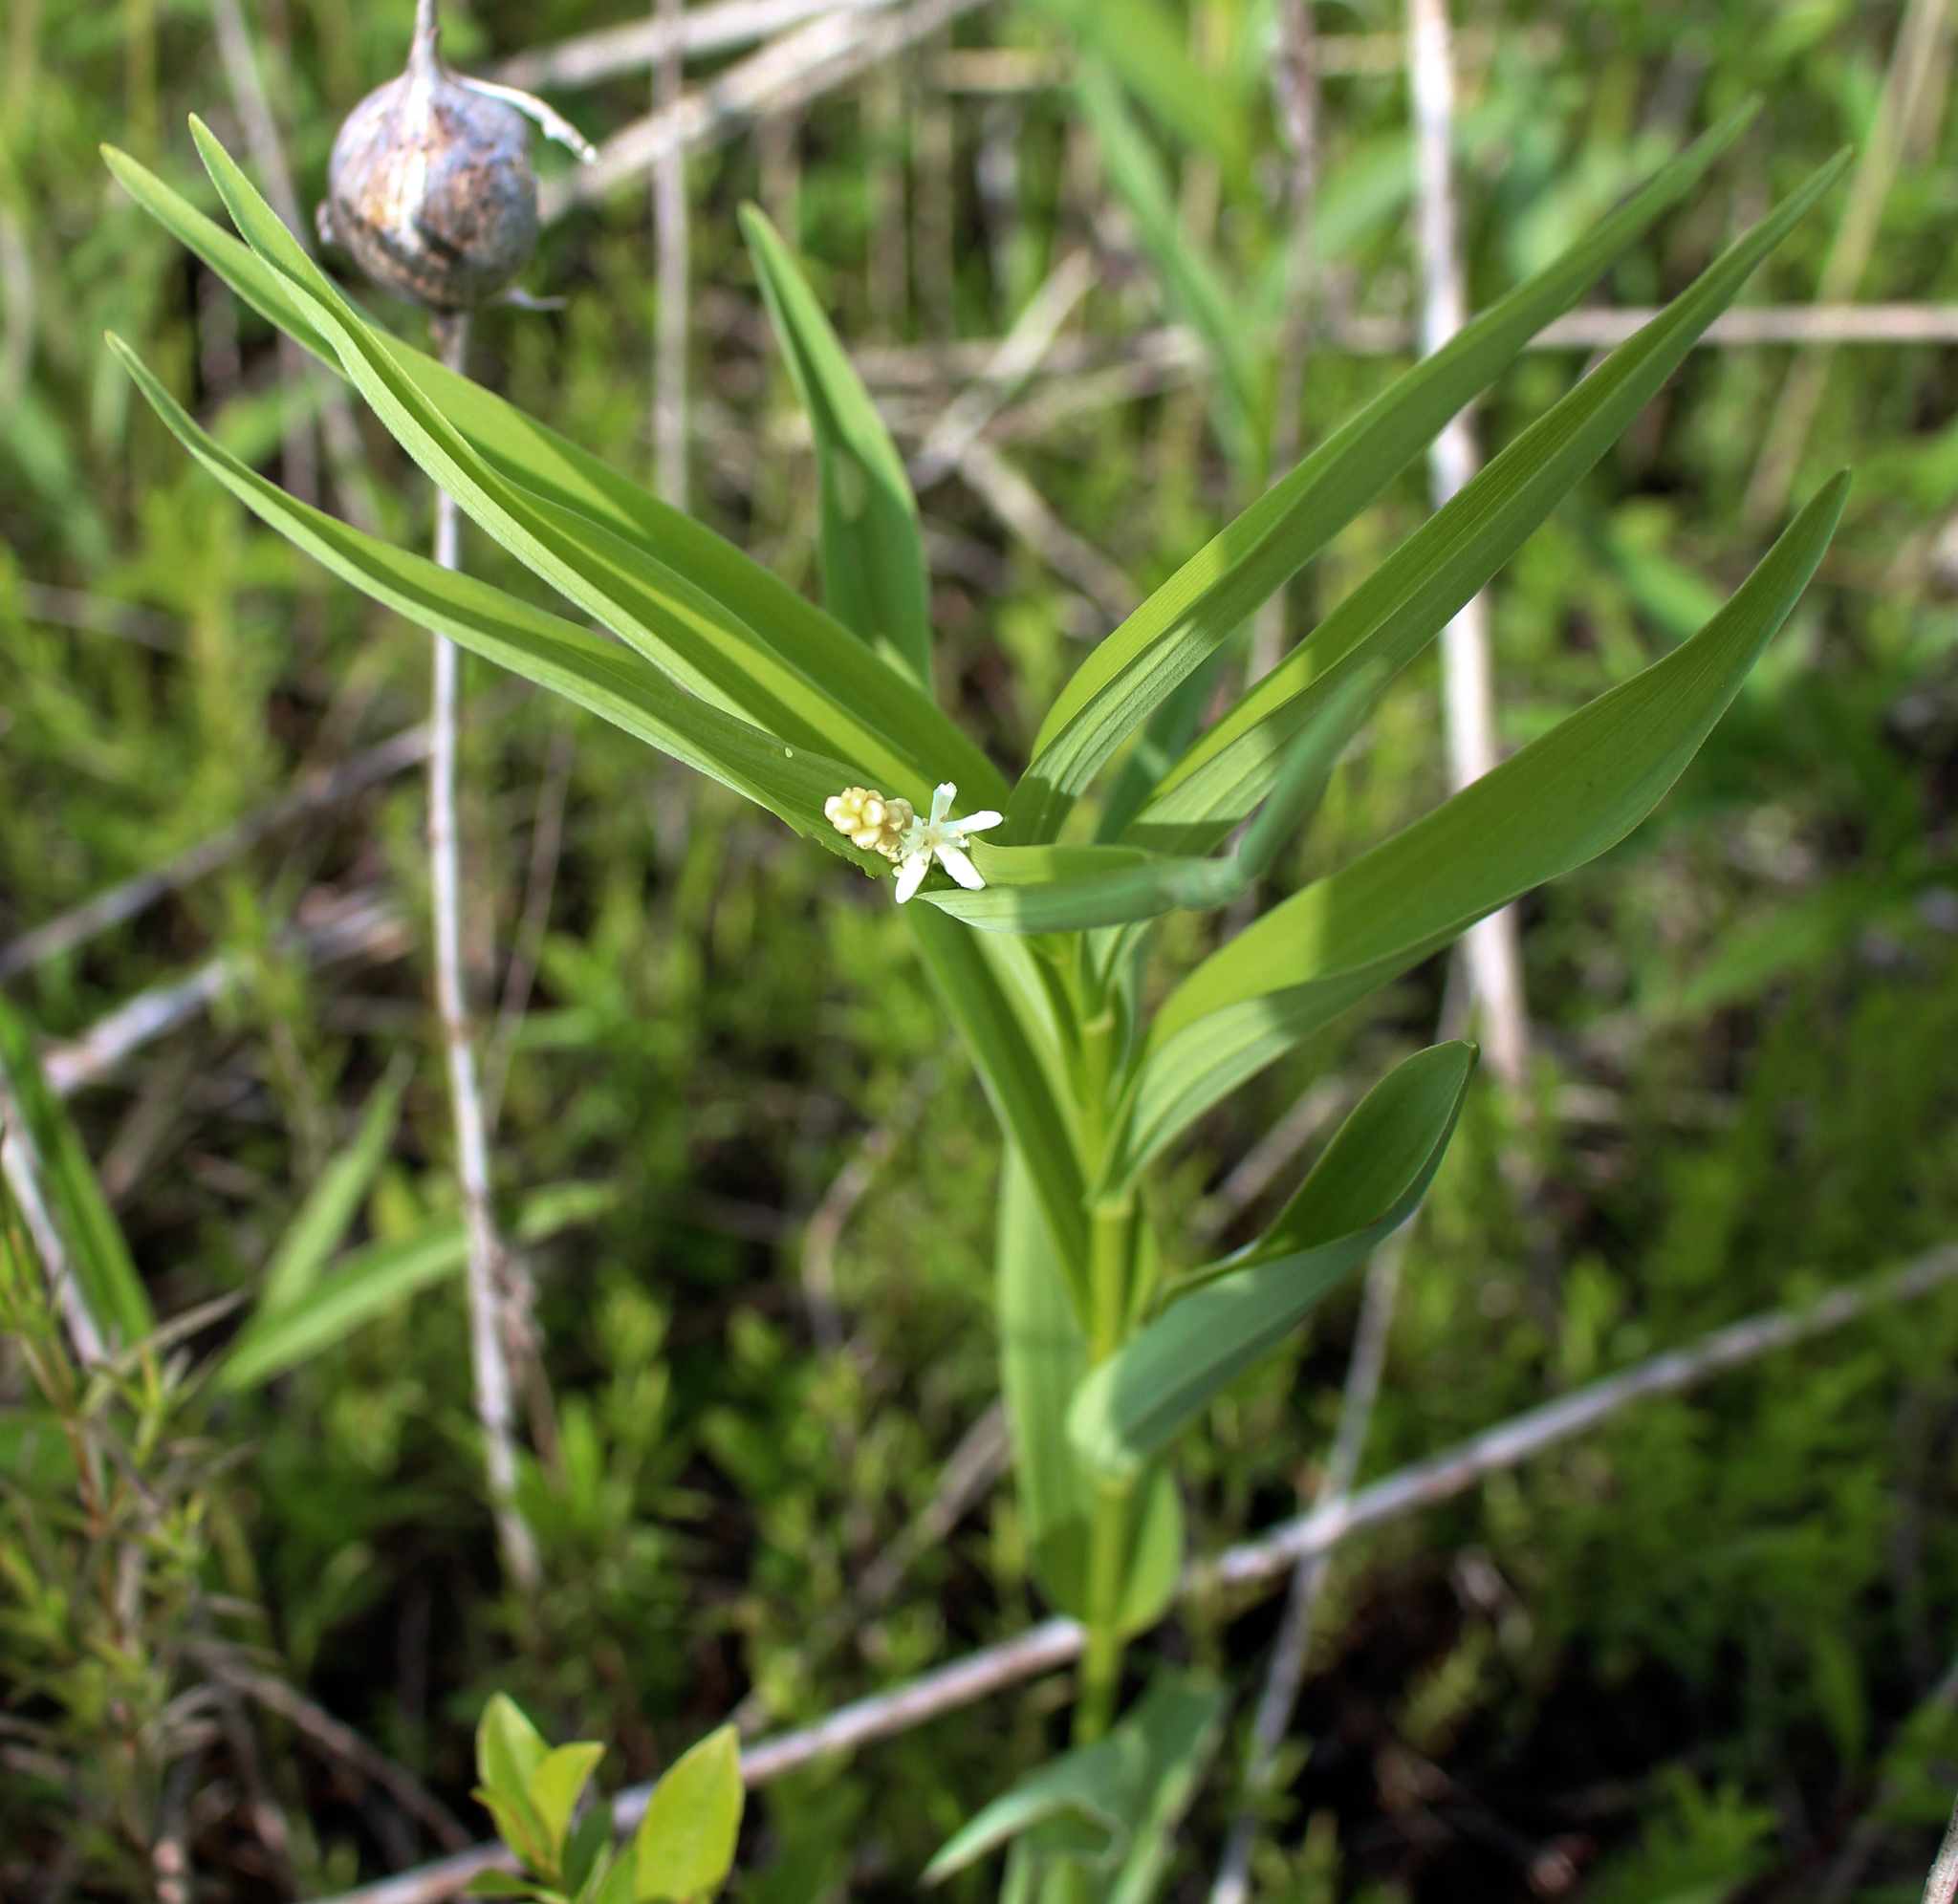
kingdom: Plantae
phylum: Tracheophyta
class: Liliopsida
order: Asparagales
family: Asparagaceae
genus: Maianthemum
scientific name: Maianthemum stellatum
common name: Little false solomon's seal
